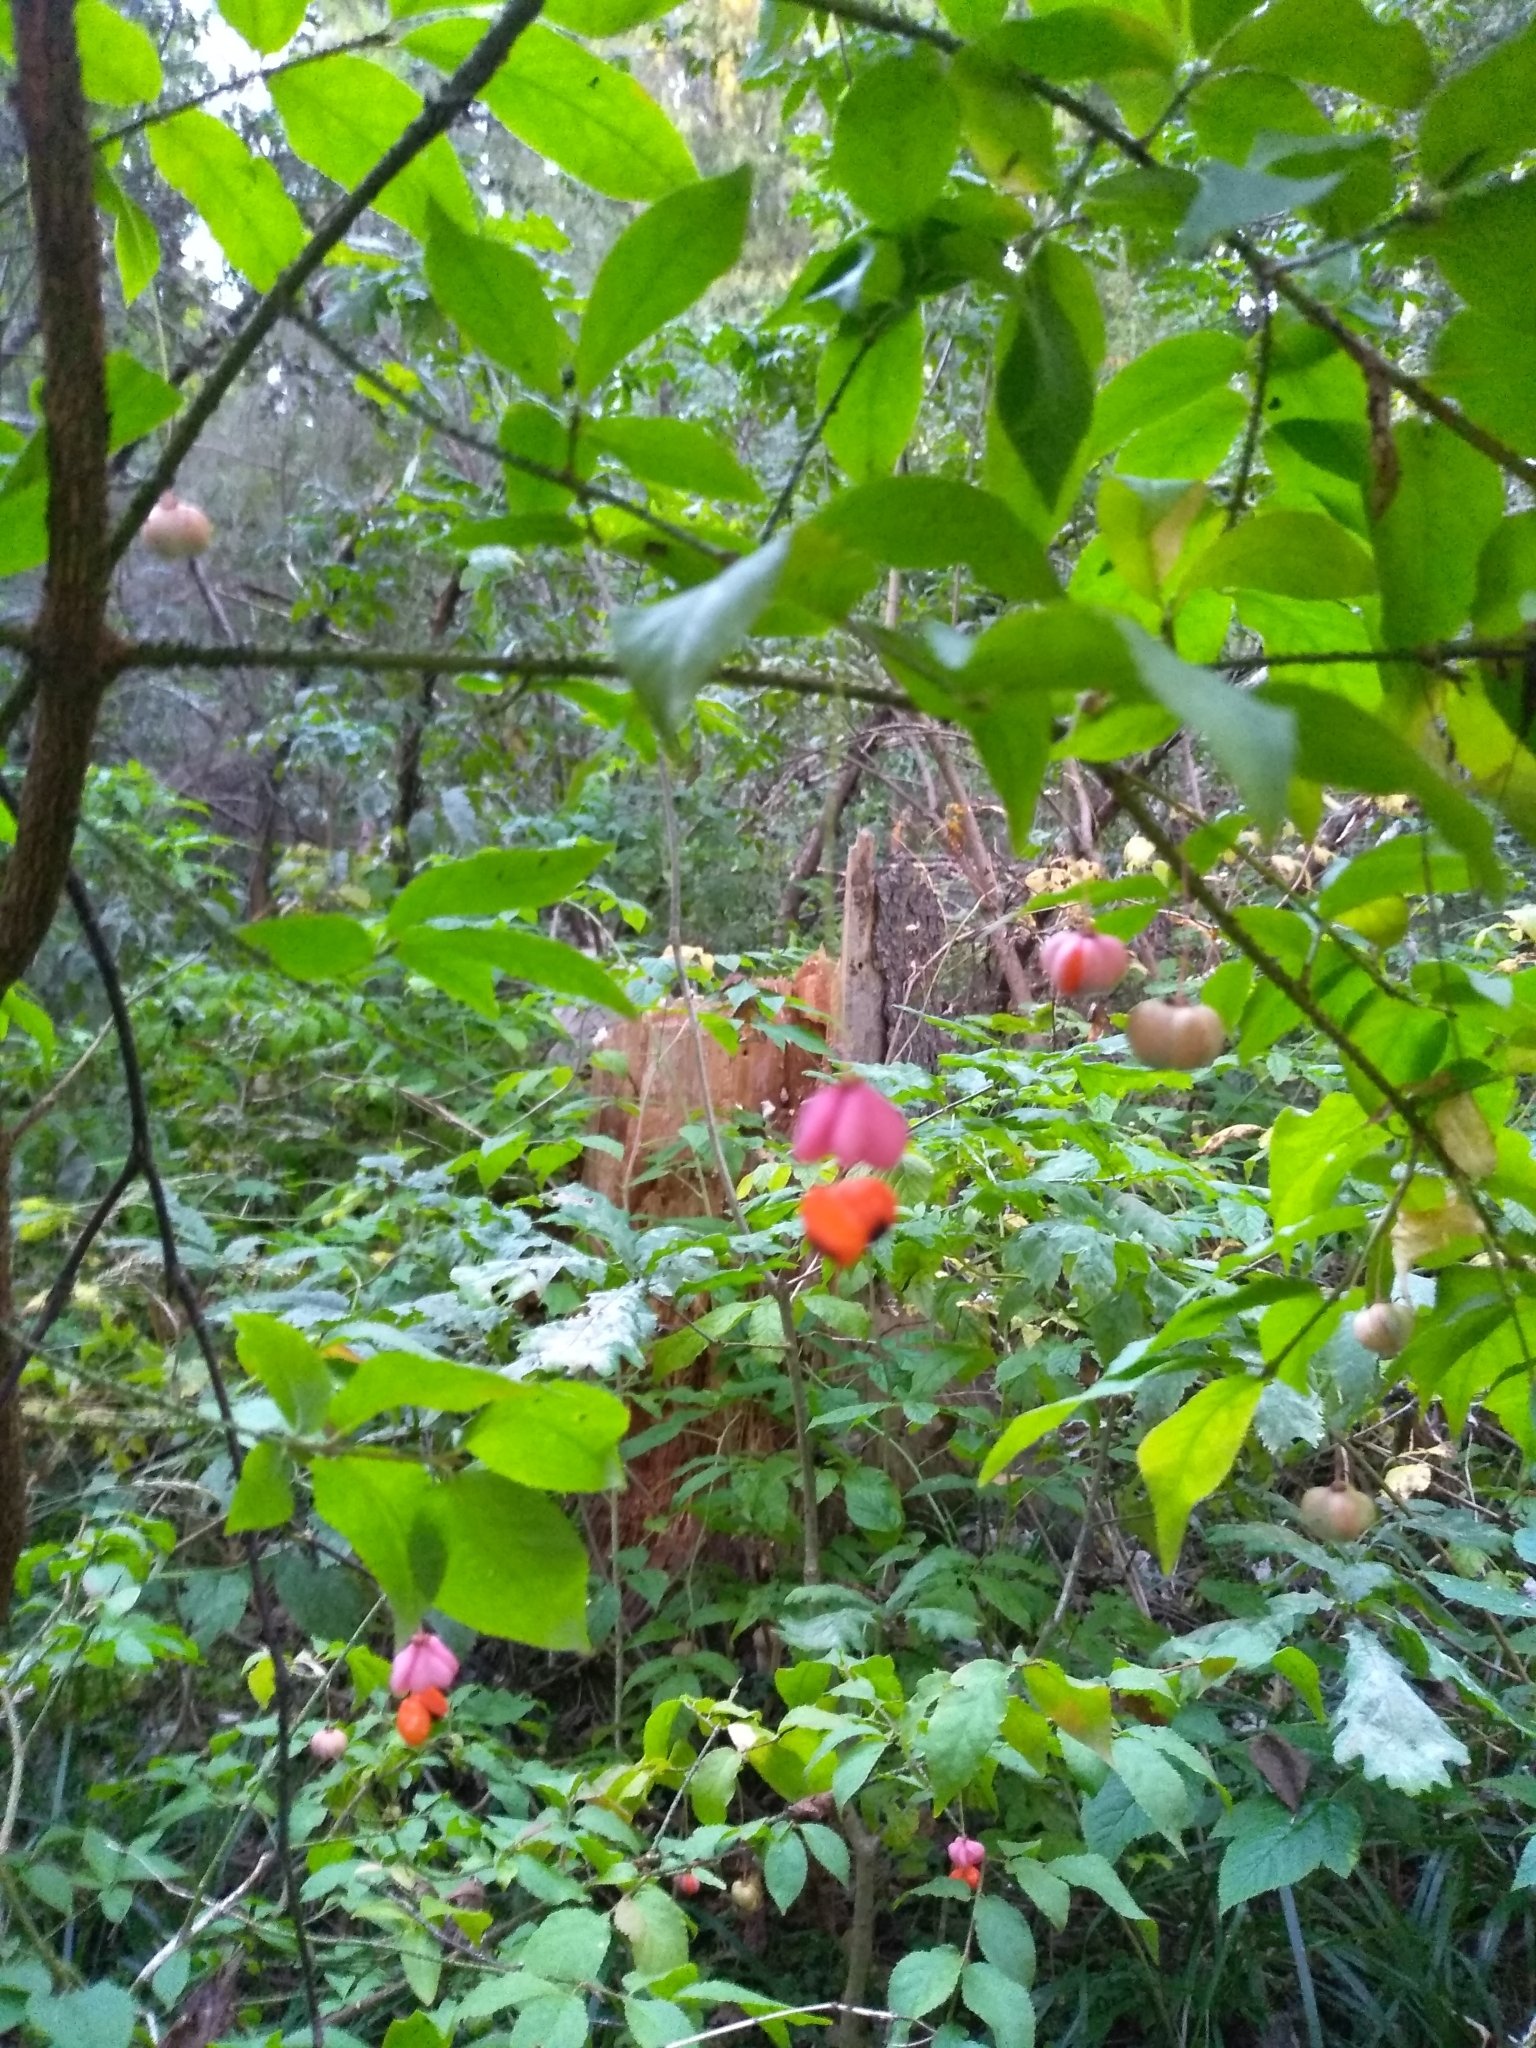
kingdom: Plantae
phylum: Tracheophyta
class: Magnoliopsida
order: Celastrales
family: Celastraceae
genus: Euonymus
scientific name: Euonymus verrucosus
